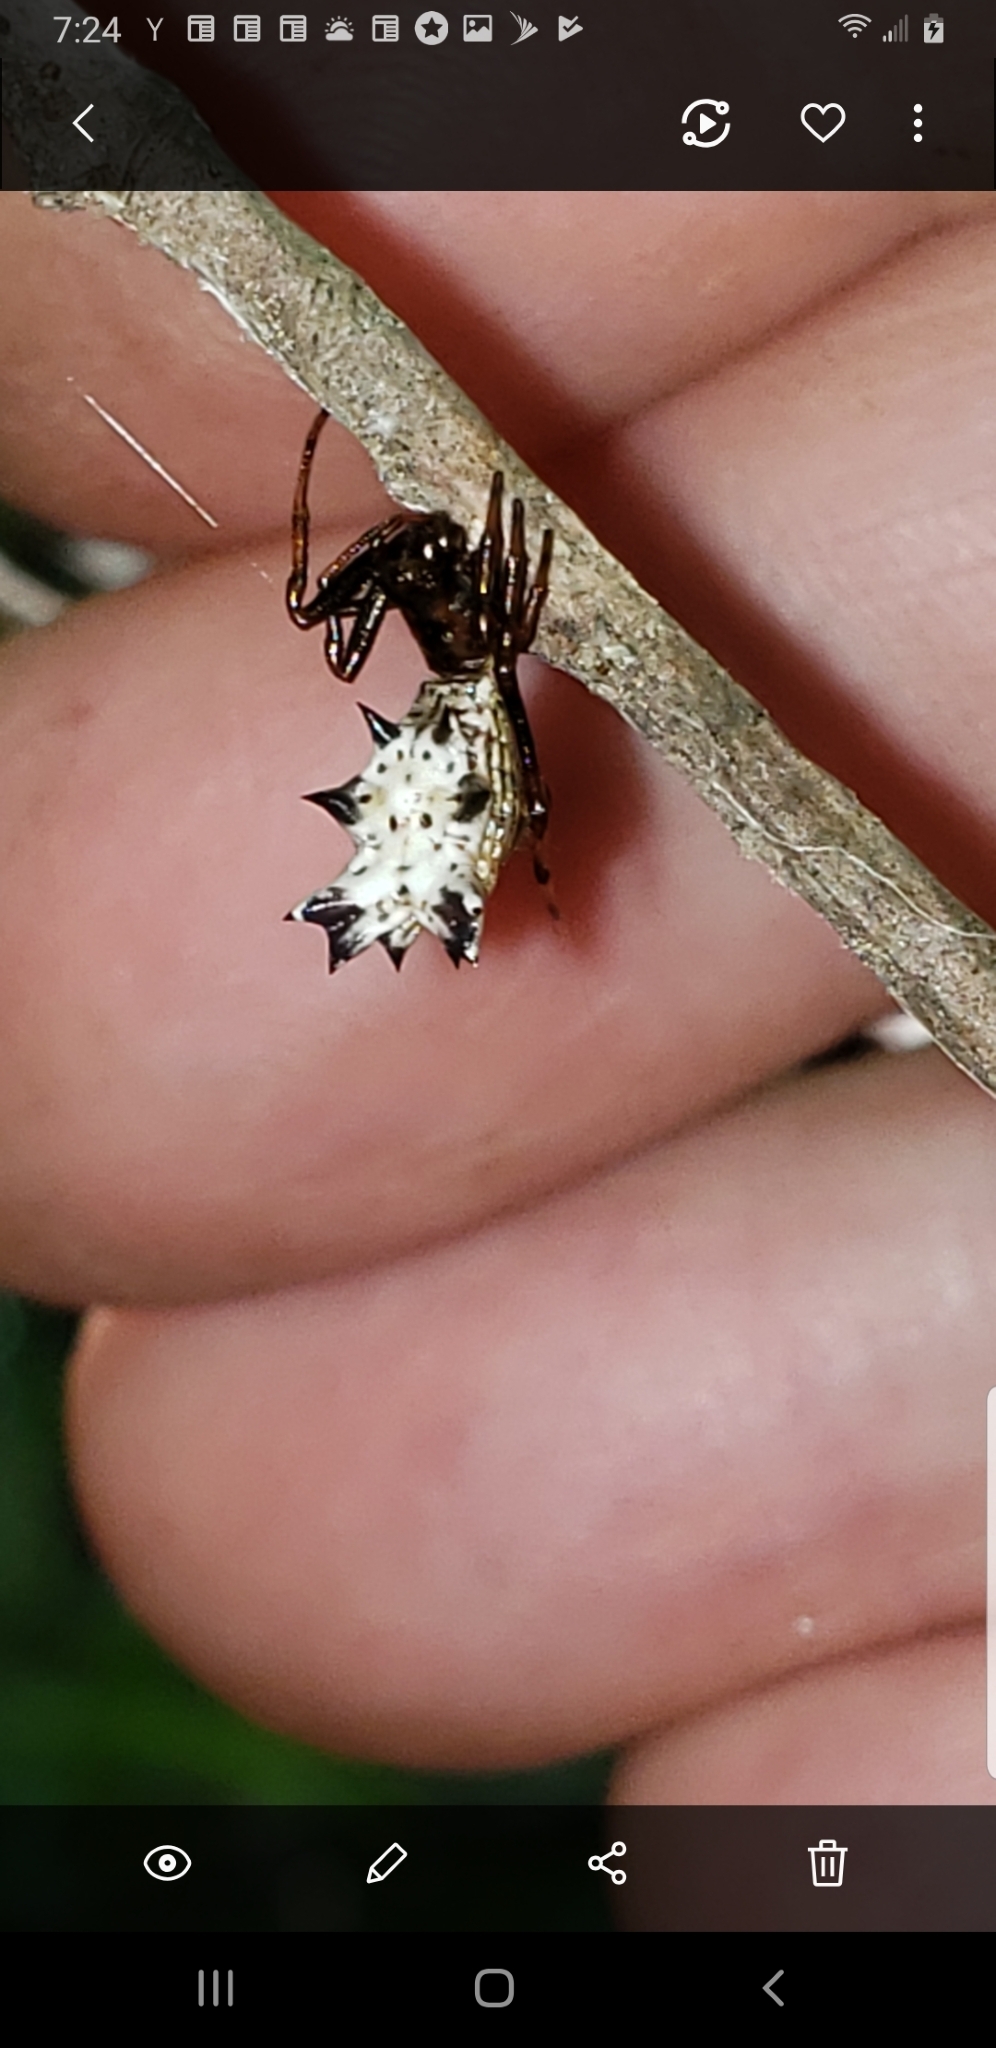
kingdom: Animalia
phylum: Arthropoda
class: Arachnida
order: Araneae
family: Araneidae
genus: Micrathena
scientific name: Micrathena gracilis
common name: Orb weavers
